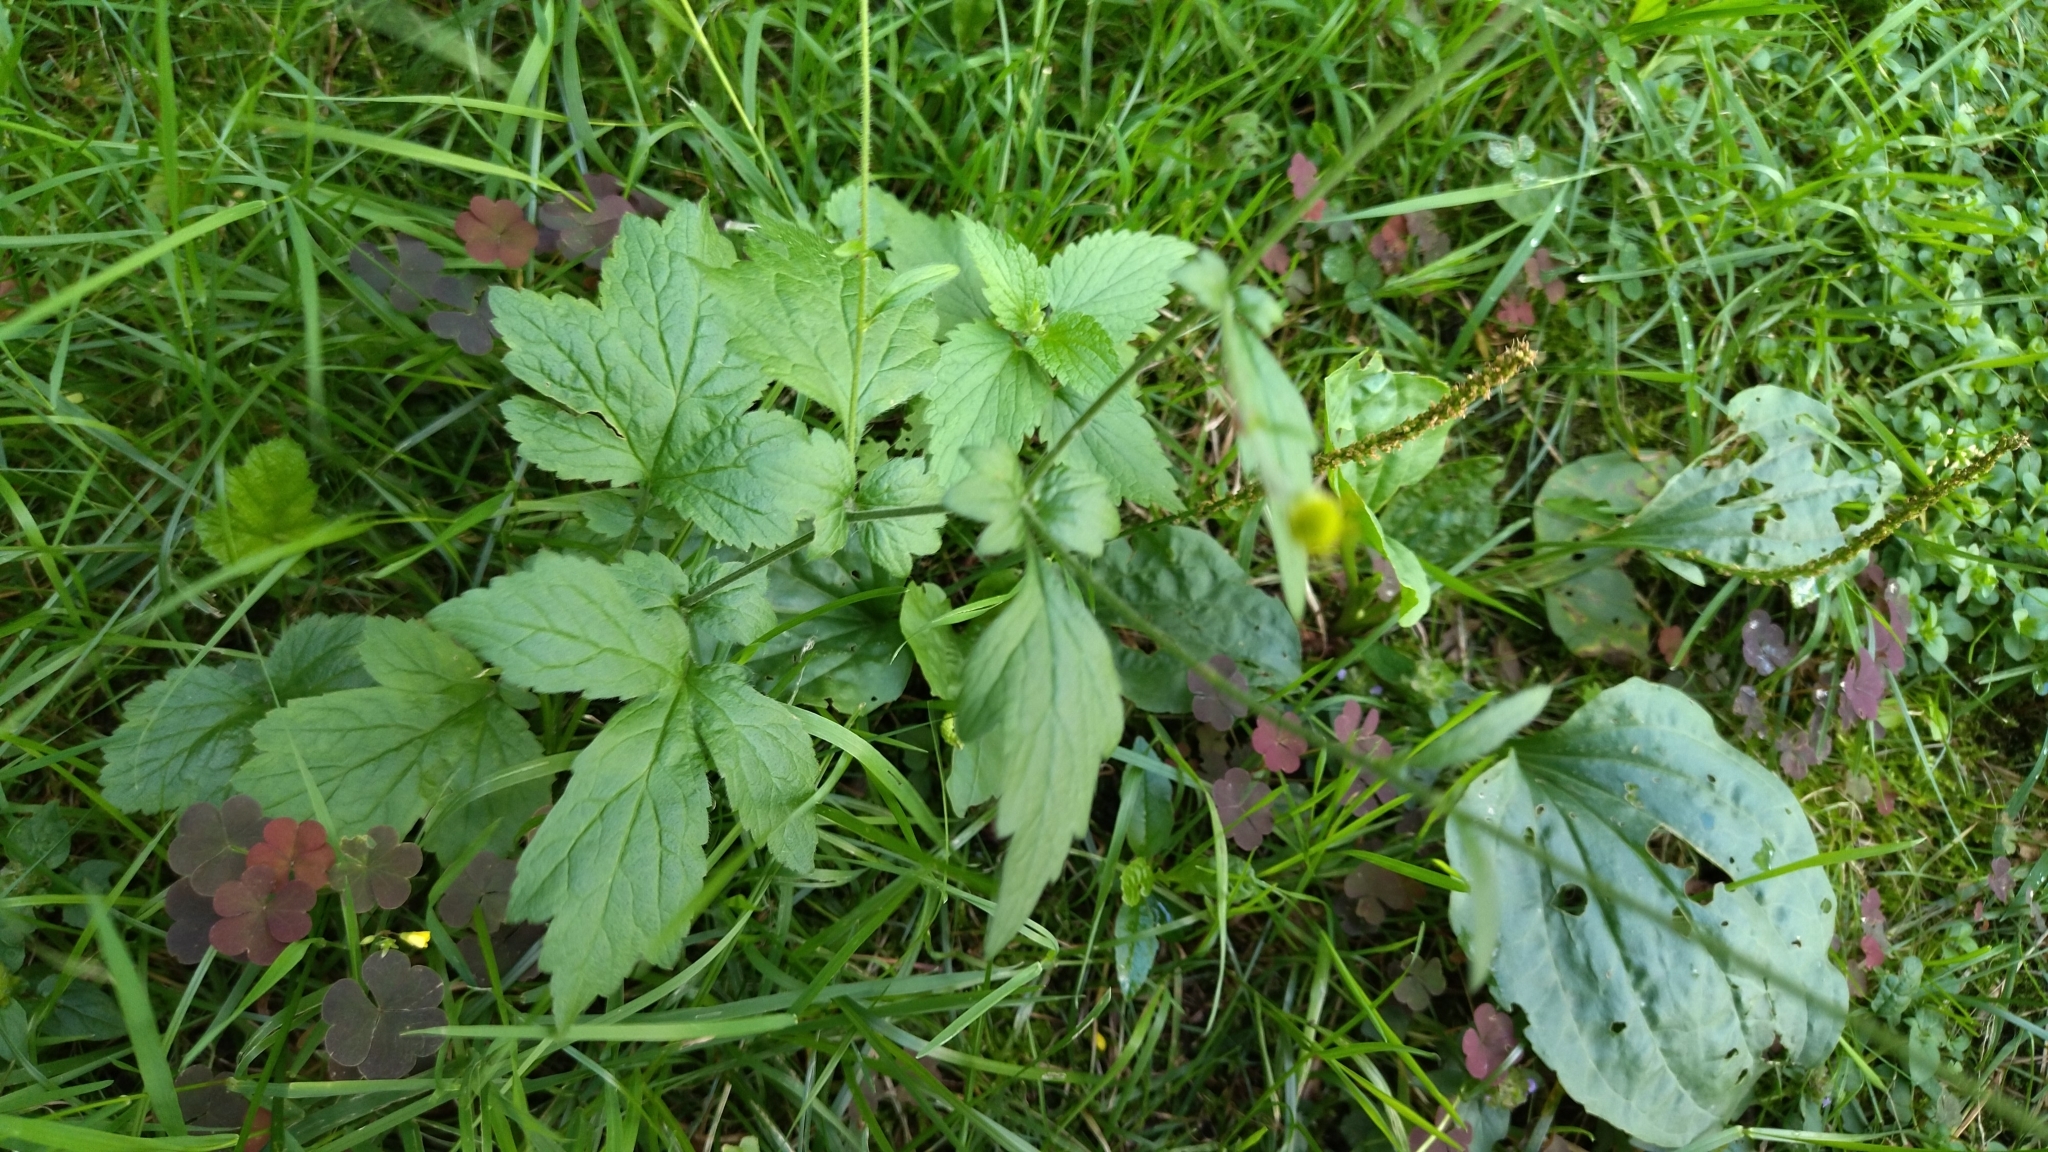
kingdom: Plantae
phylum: Tracheophyta
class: Magnoliopsida
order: Rosales
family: Rosaceae
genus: Geum
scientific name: Geum urbanum
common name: Wood avens
